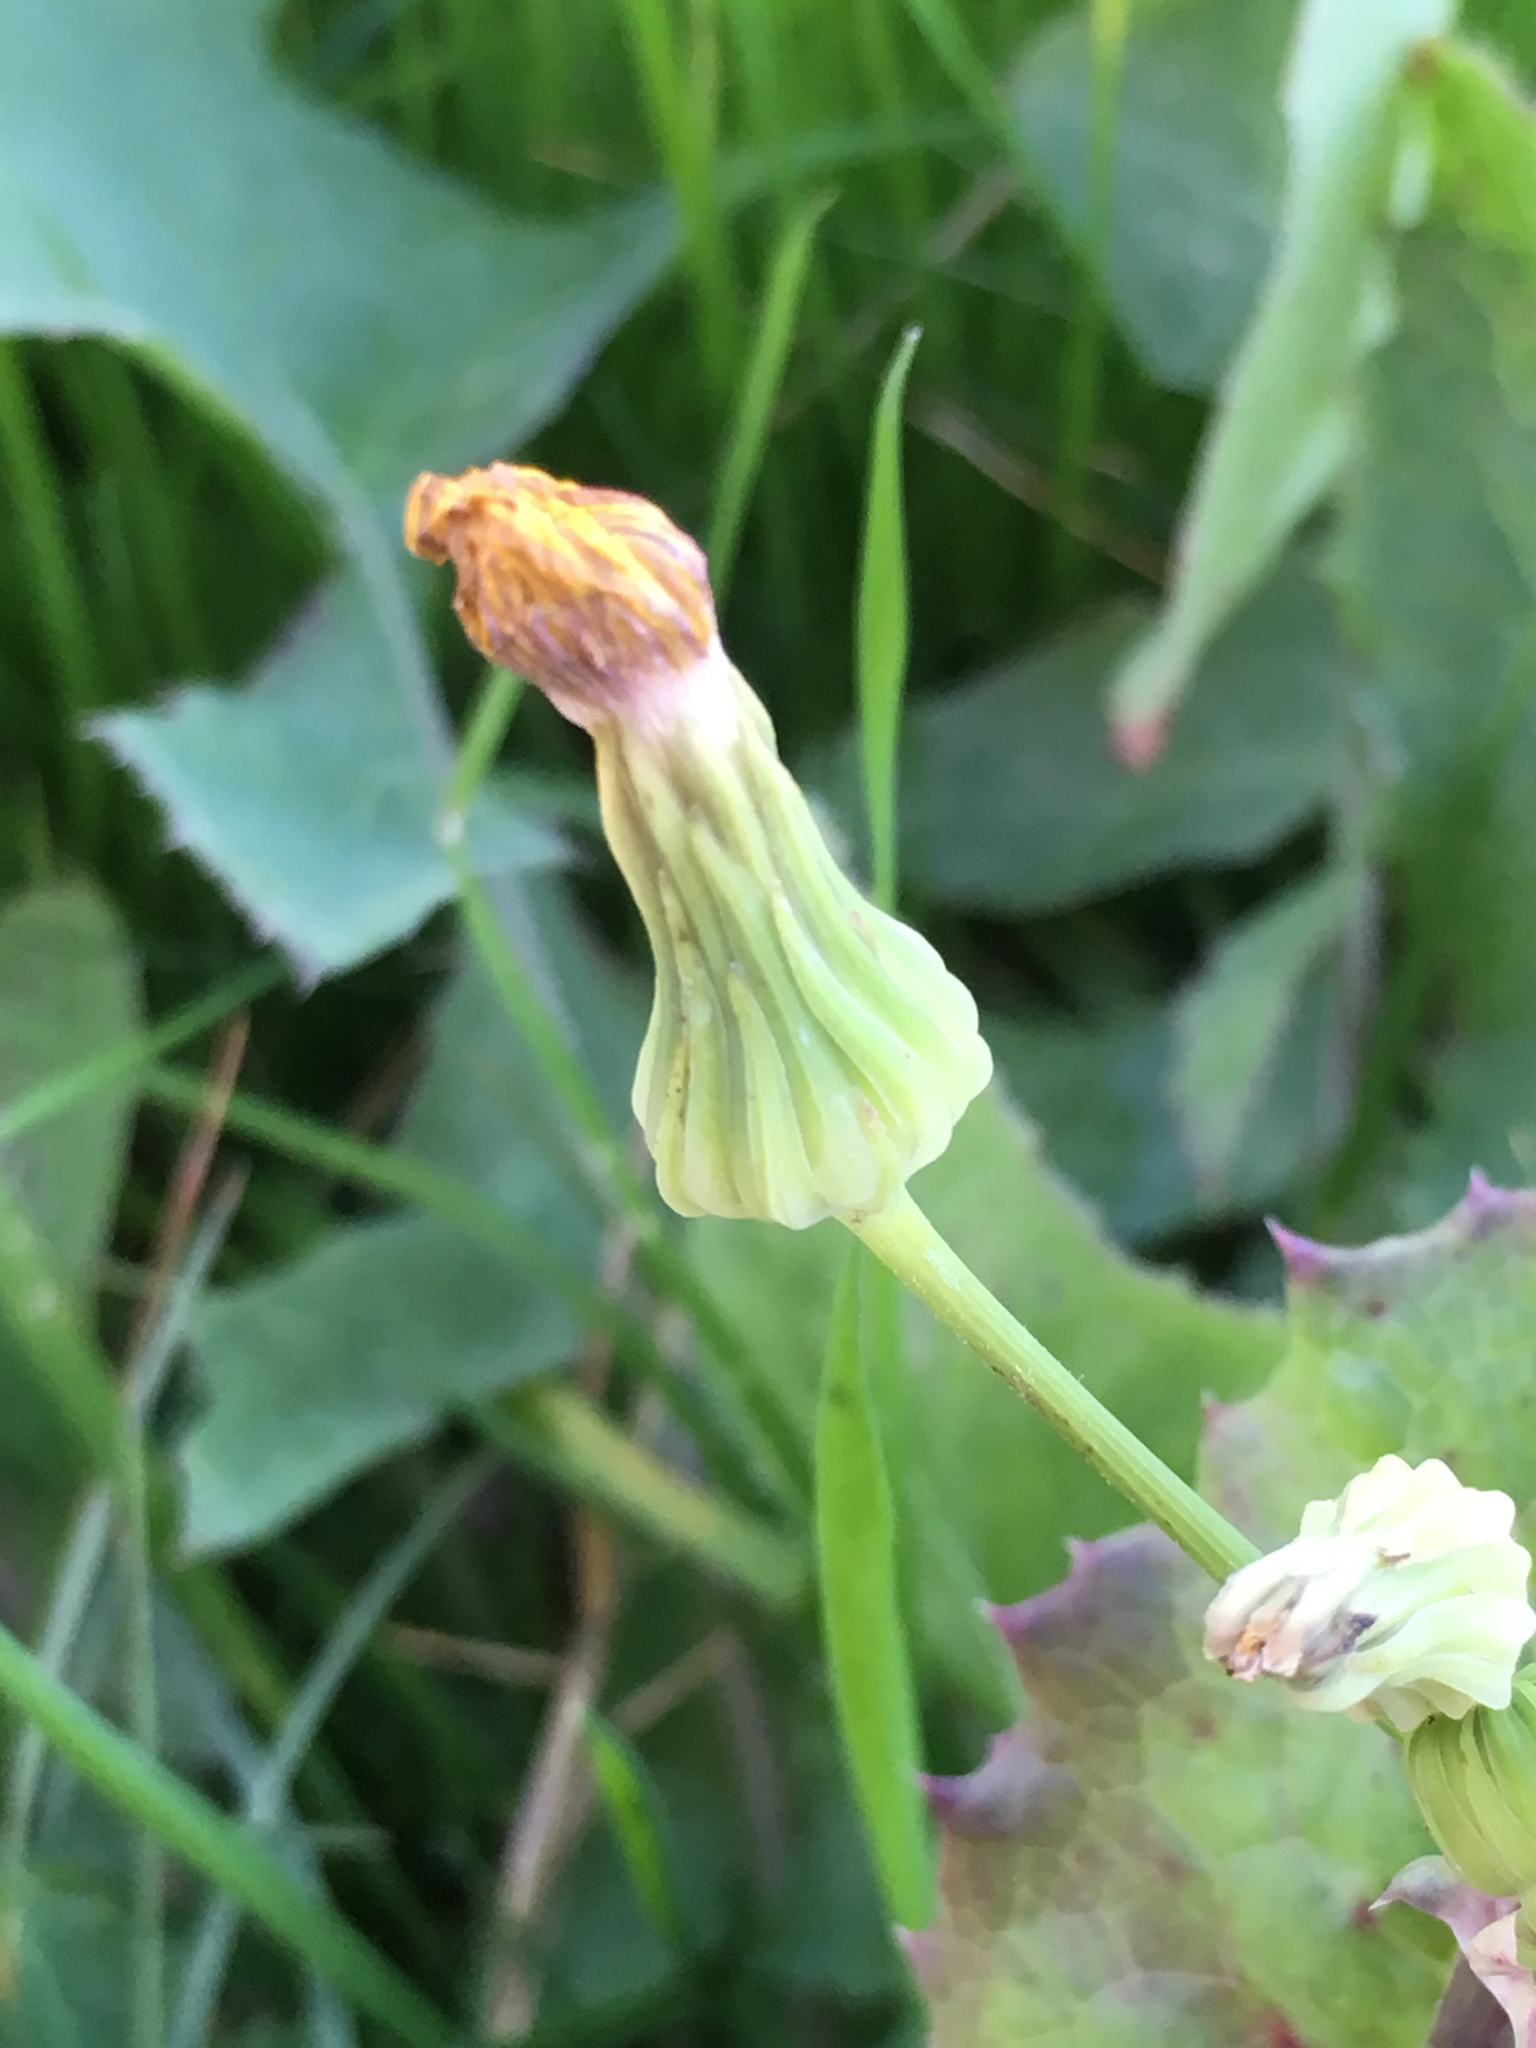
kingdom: Plantae
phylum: Tracheophyta
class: Magnoliopsida
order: Asterales
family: Asteraceae
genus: Sonchus
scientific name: Sonchus oleraceus
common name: Common sowthistle
